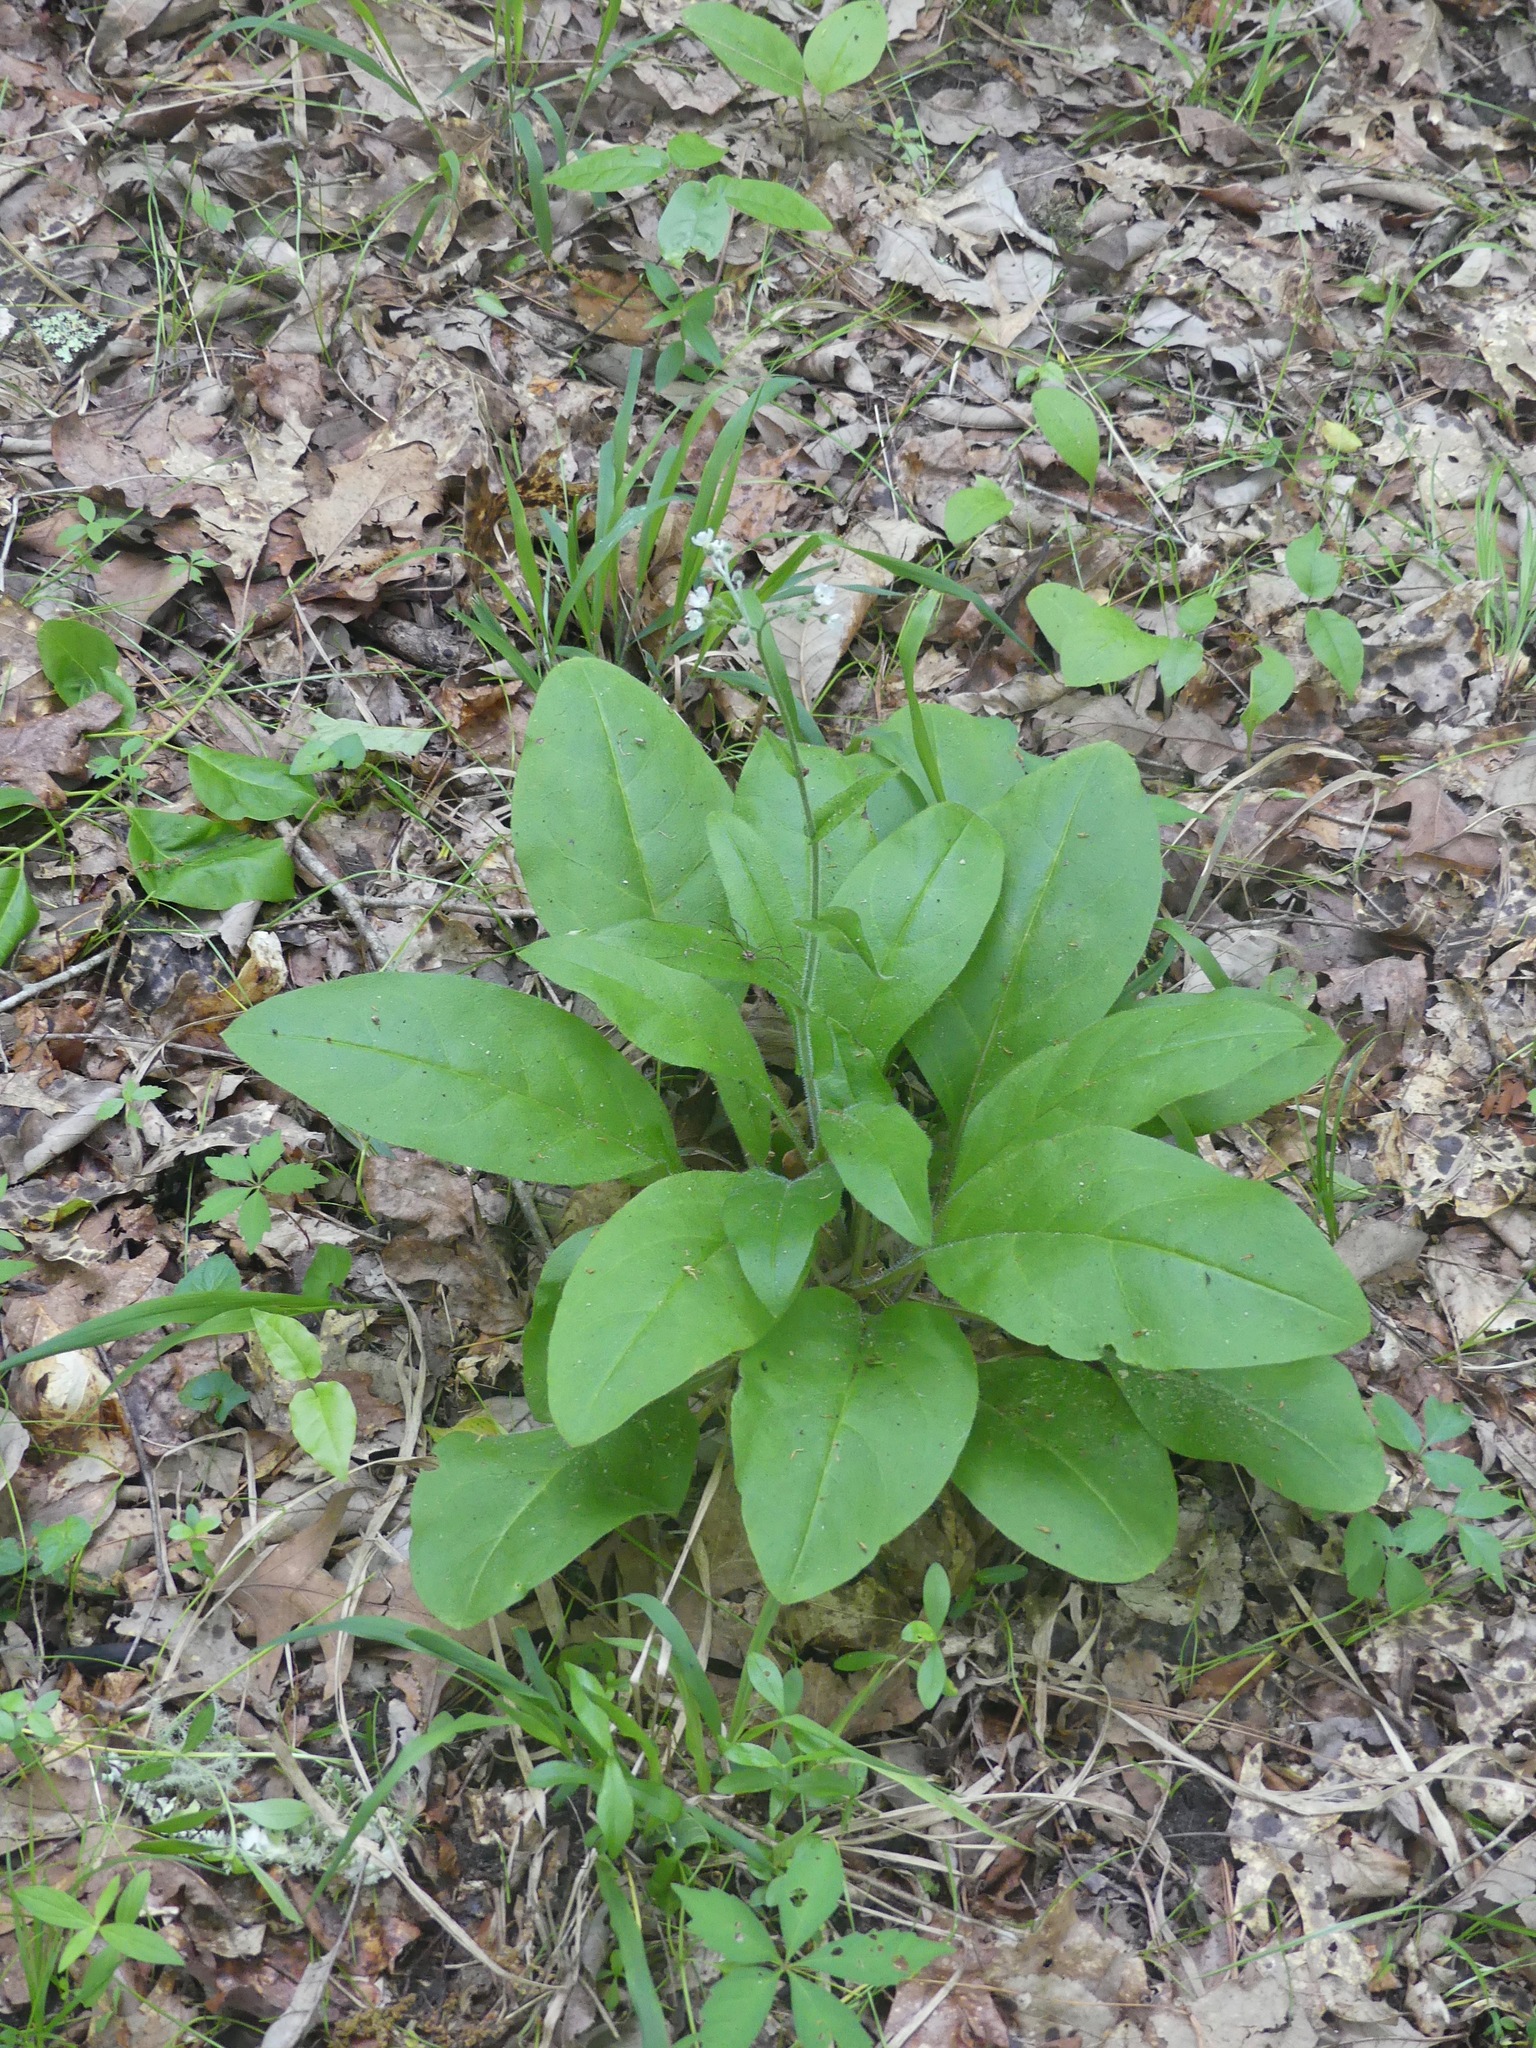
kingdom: Plantae
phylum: Tracheophyta
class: Magnoliopsida
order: Boraginales
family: Boraginaceae
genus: Andersonglossum
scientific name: Andersonglossum virginianum
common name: Wild comfrey
